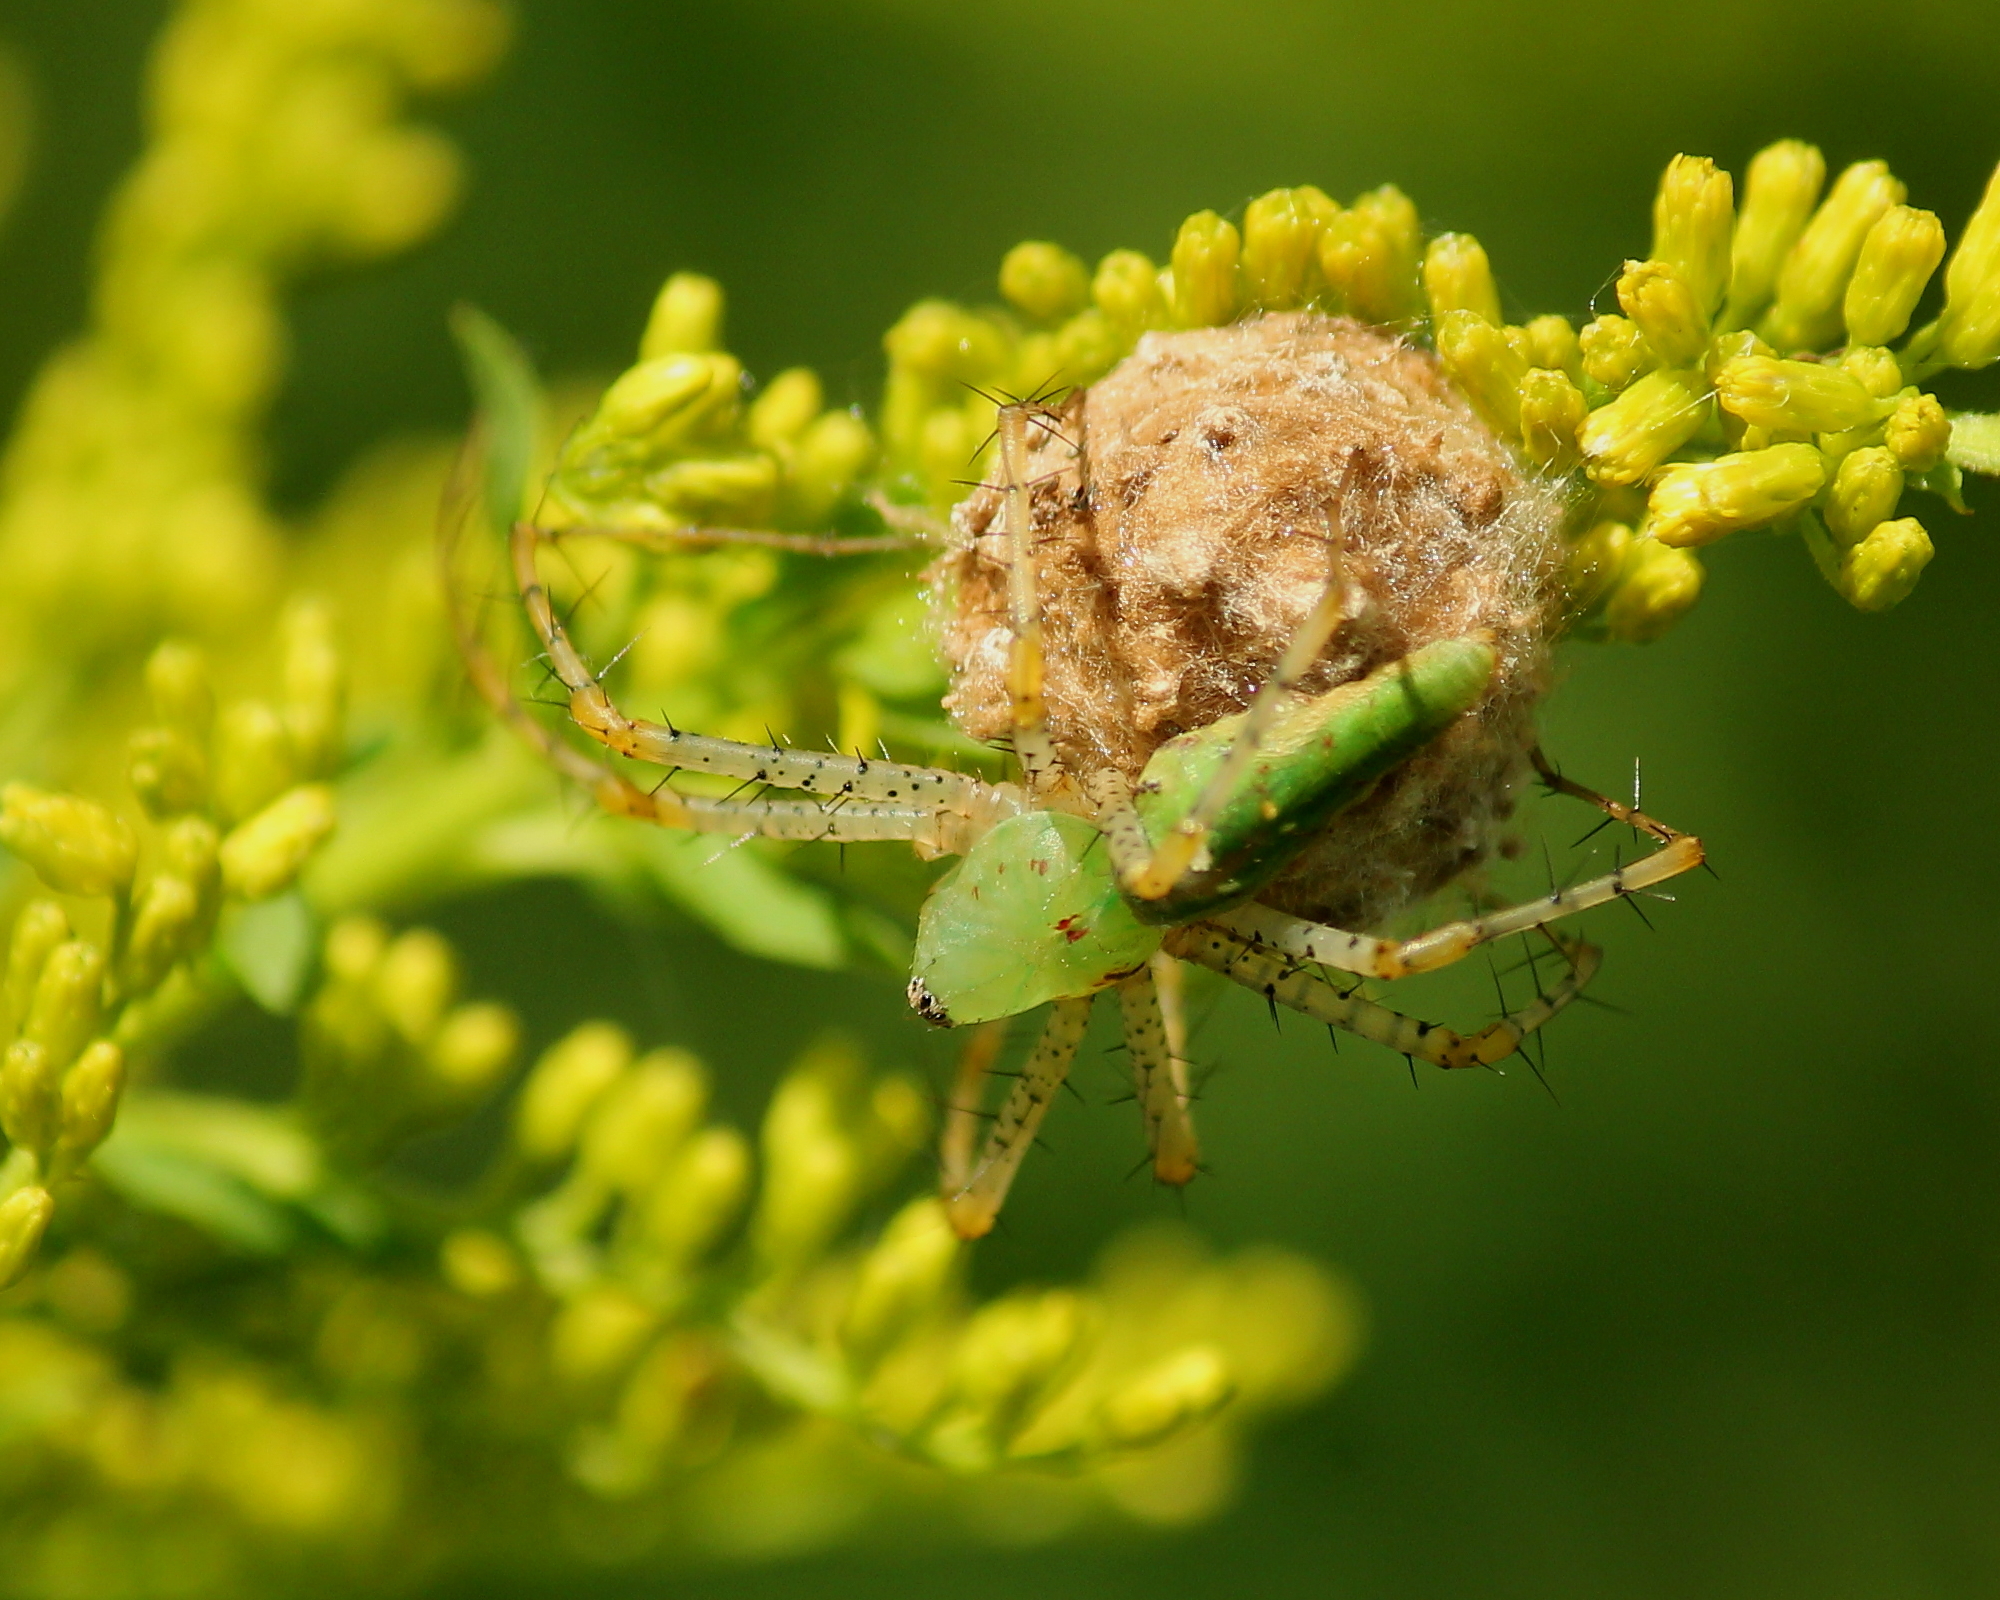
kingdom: Animalia
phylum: Arthropoda
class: Arachnida
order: Araneae
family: Oxyopidae
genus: Peucetia
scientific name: Peucetia viridans
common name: Lynx spiders
